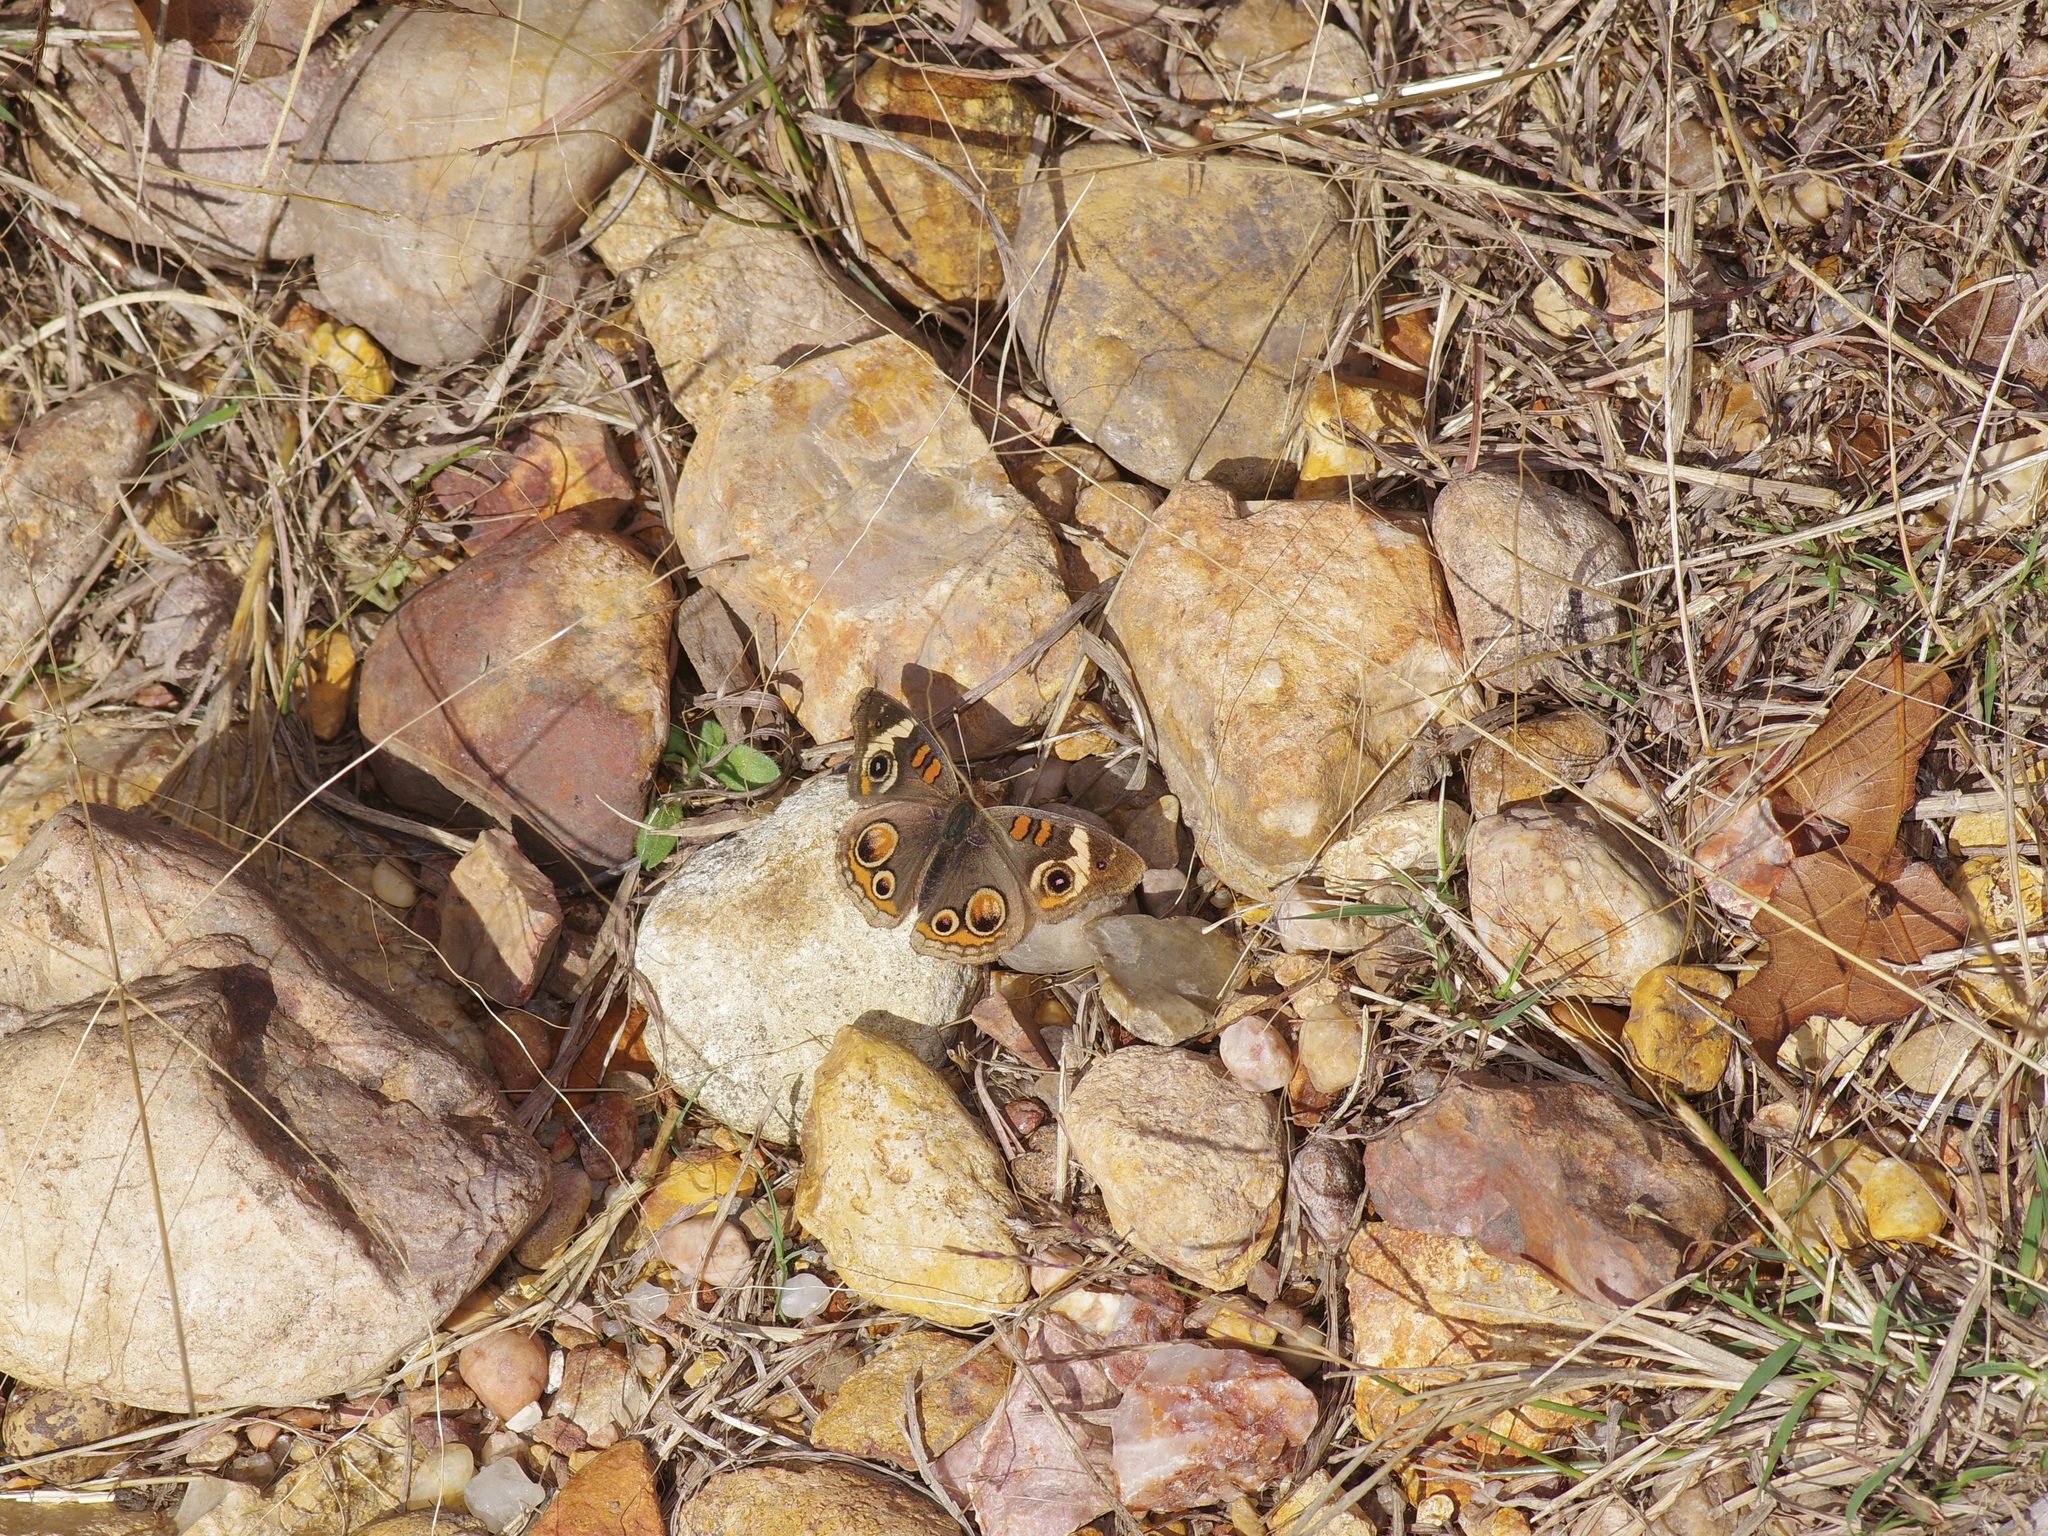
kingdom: Animalia
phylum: Arthropoda
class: Insecta
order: Lepidoptera
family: Nymphalidae
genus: Junonia
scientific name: Junonia coenia
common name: Common buckeye
